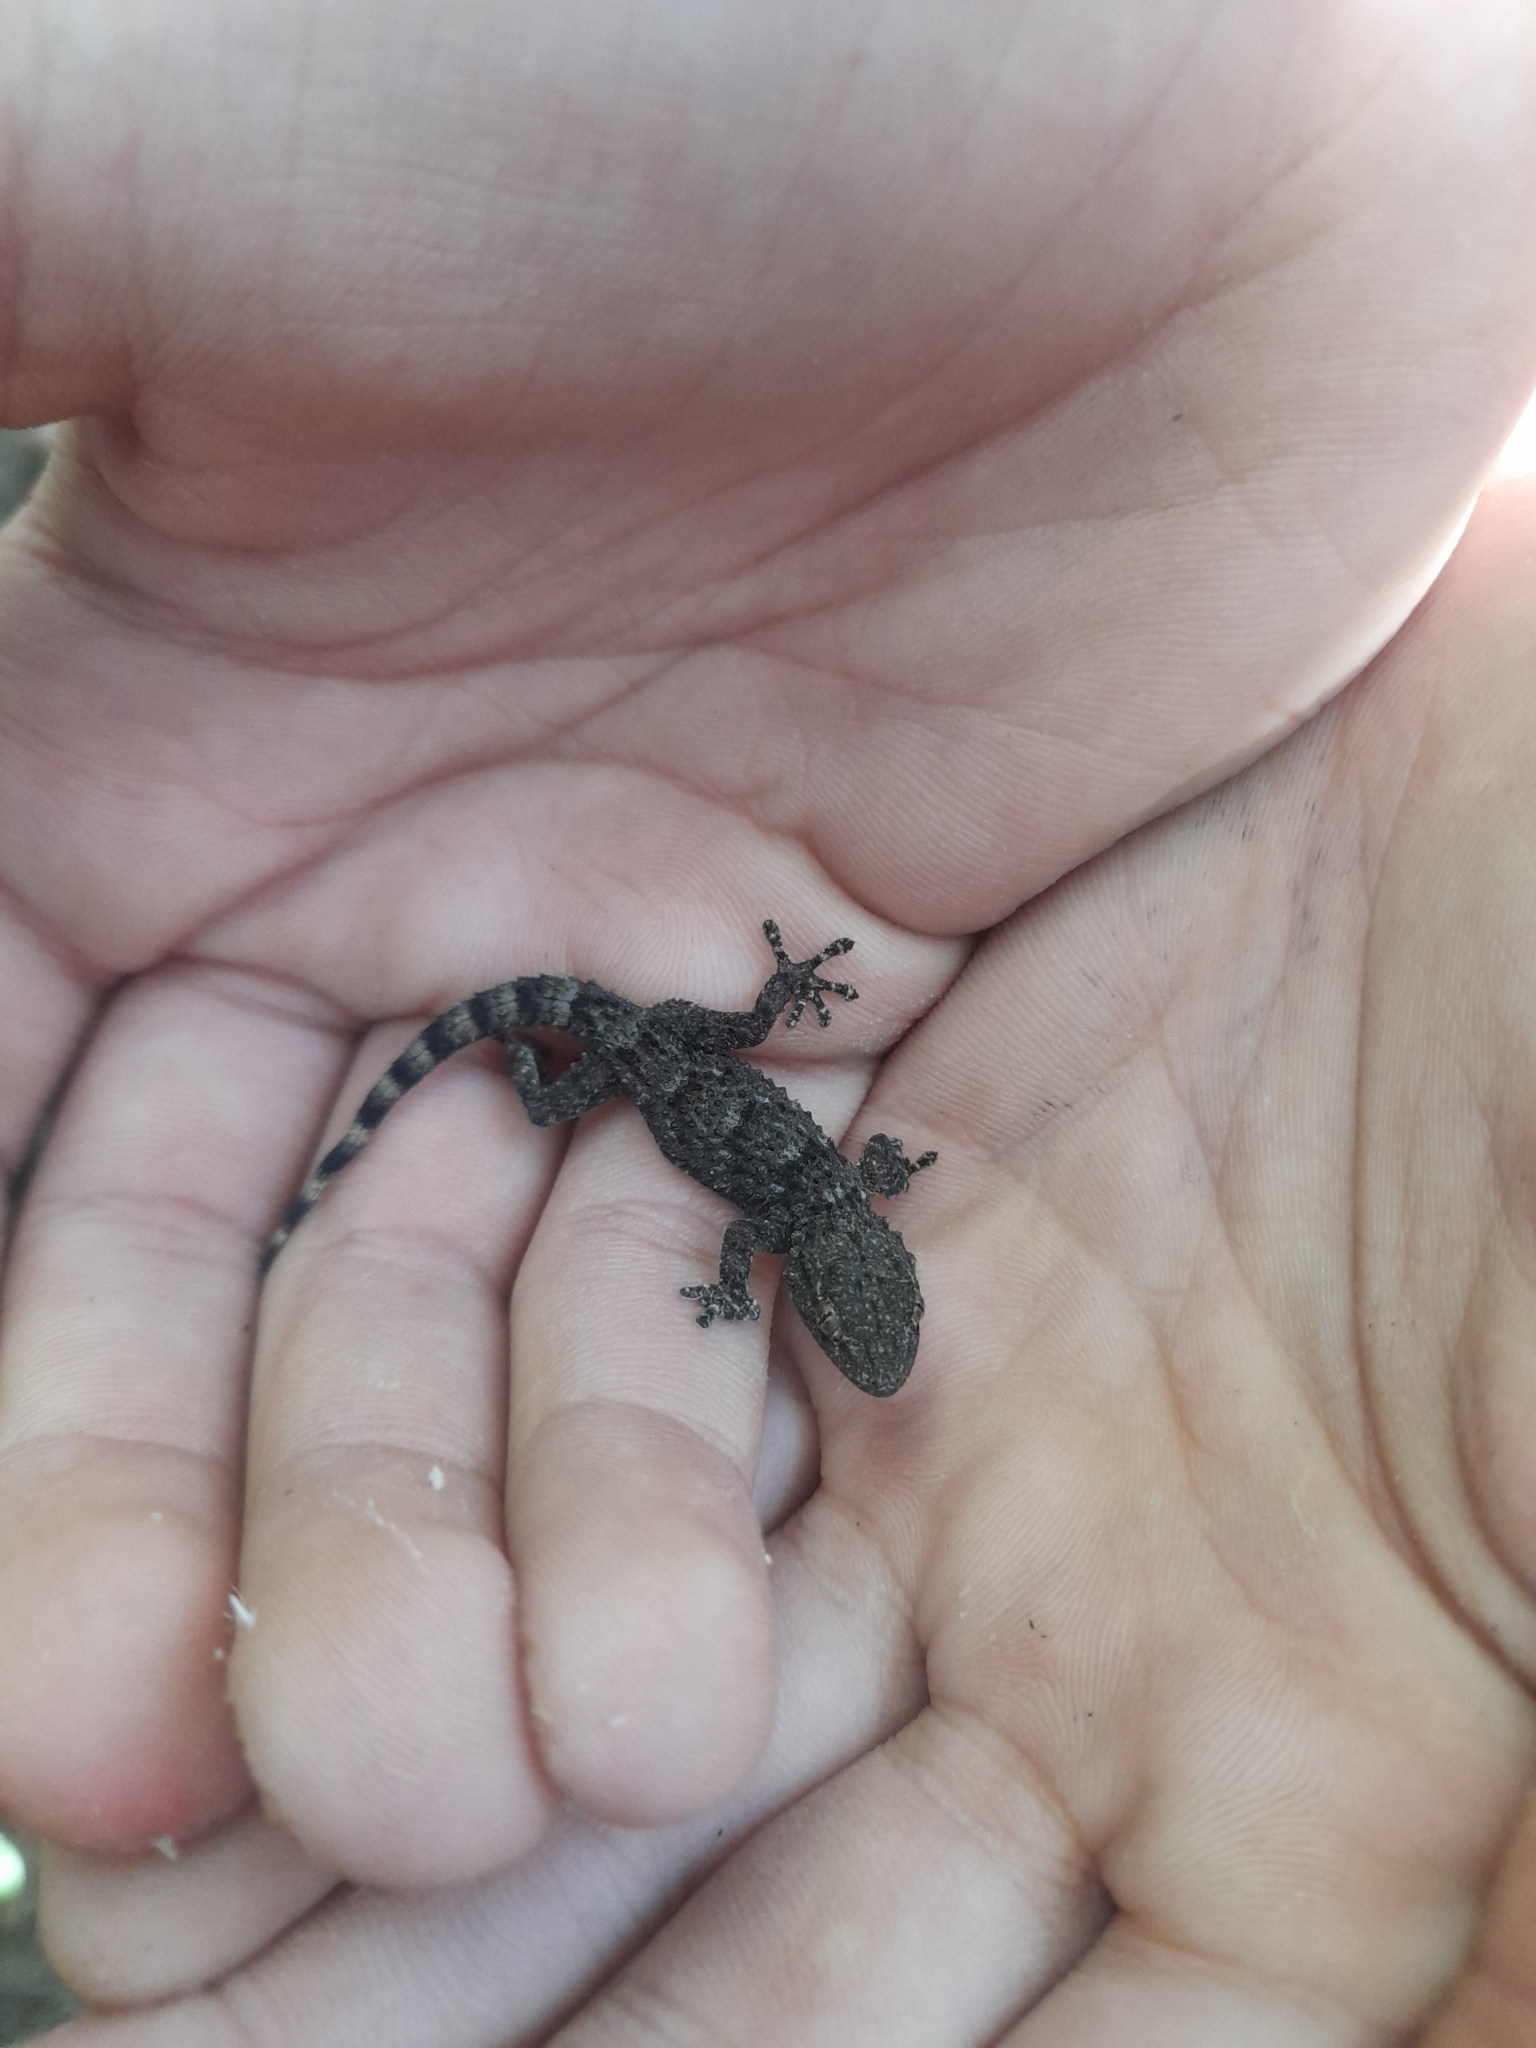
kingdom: Animalia
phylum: Chordata
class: Squamata
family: Phyllodactylidae
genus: Tarentola
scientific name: Tarentola mauritanica
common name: Moorish gecko
